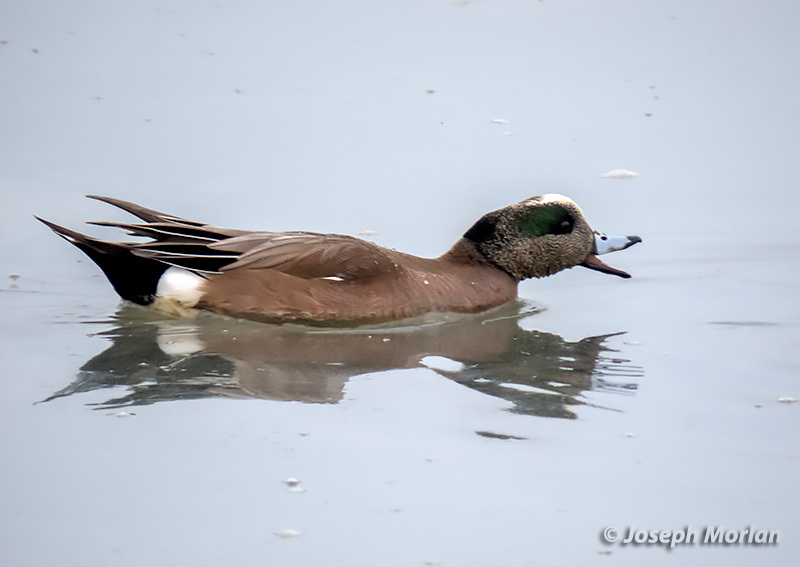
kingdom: Animalia
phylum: Chordata
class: Aves
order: Anseriformes
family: Anatidae
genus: Mareca
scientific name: Mareca americana
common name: American wigeon
